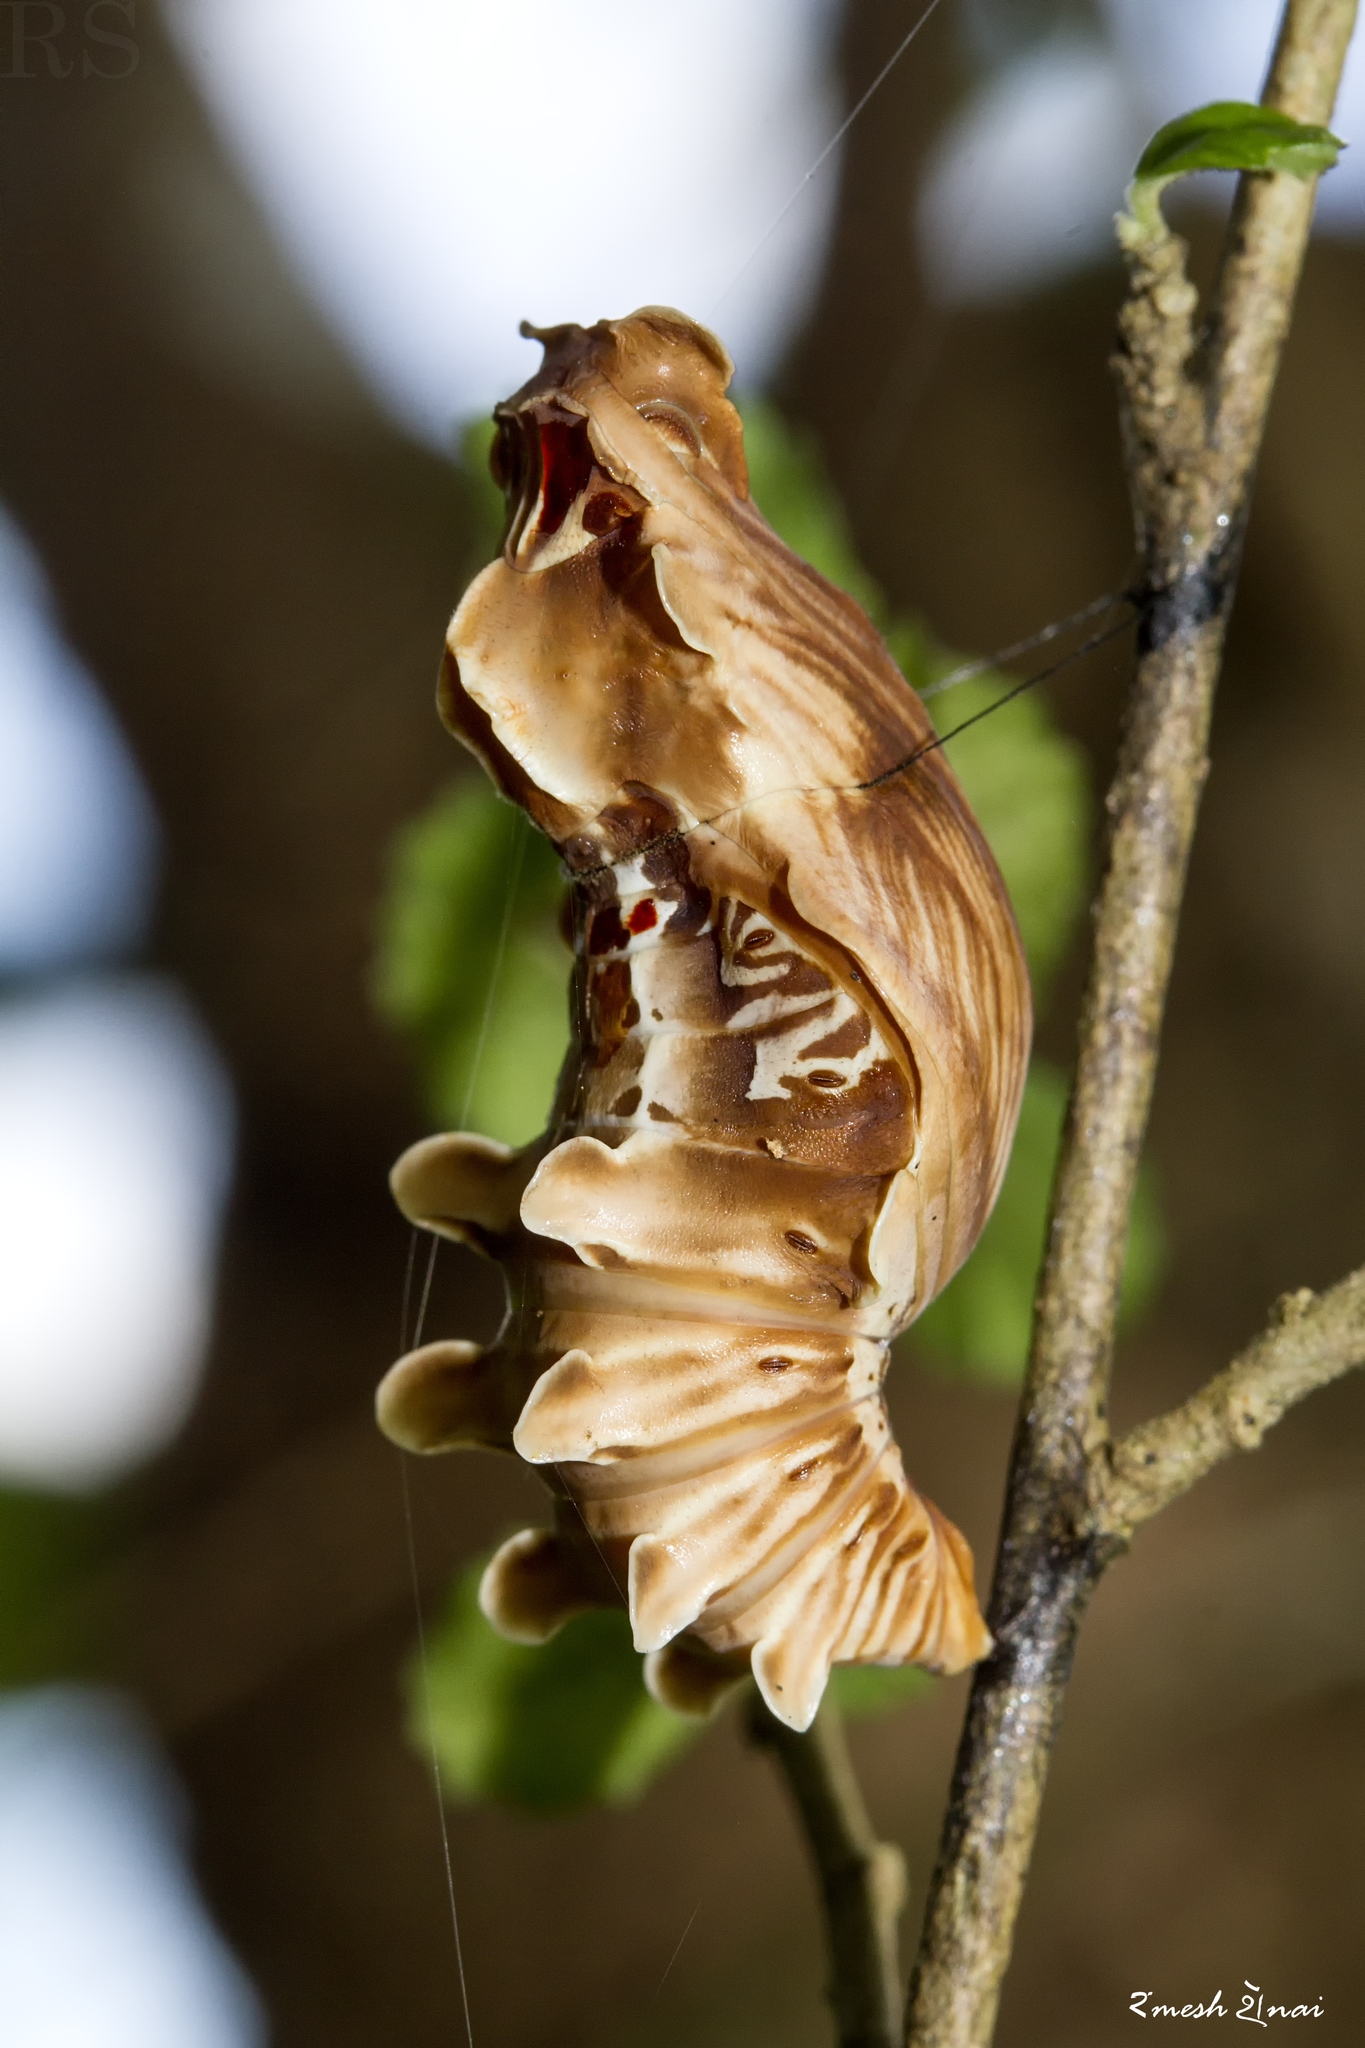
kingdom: Animalia
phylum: Arthropoda
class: Insecta
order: Lepidoptera
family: Papilionidae
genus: Pachliopta
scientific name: Pachliopta aristolochiae
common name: Common rose
